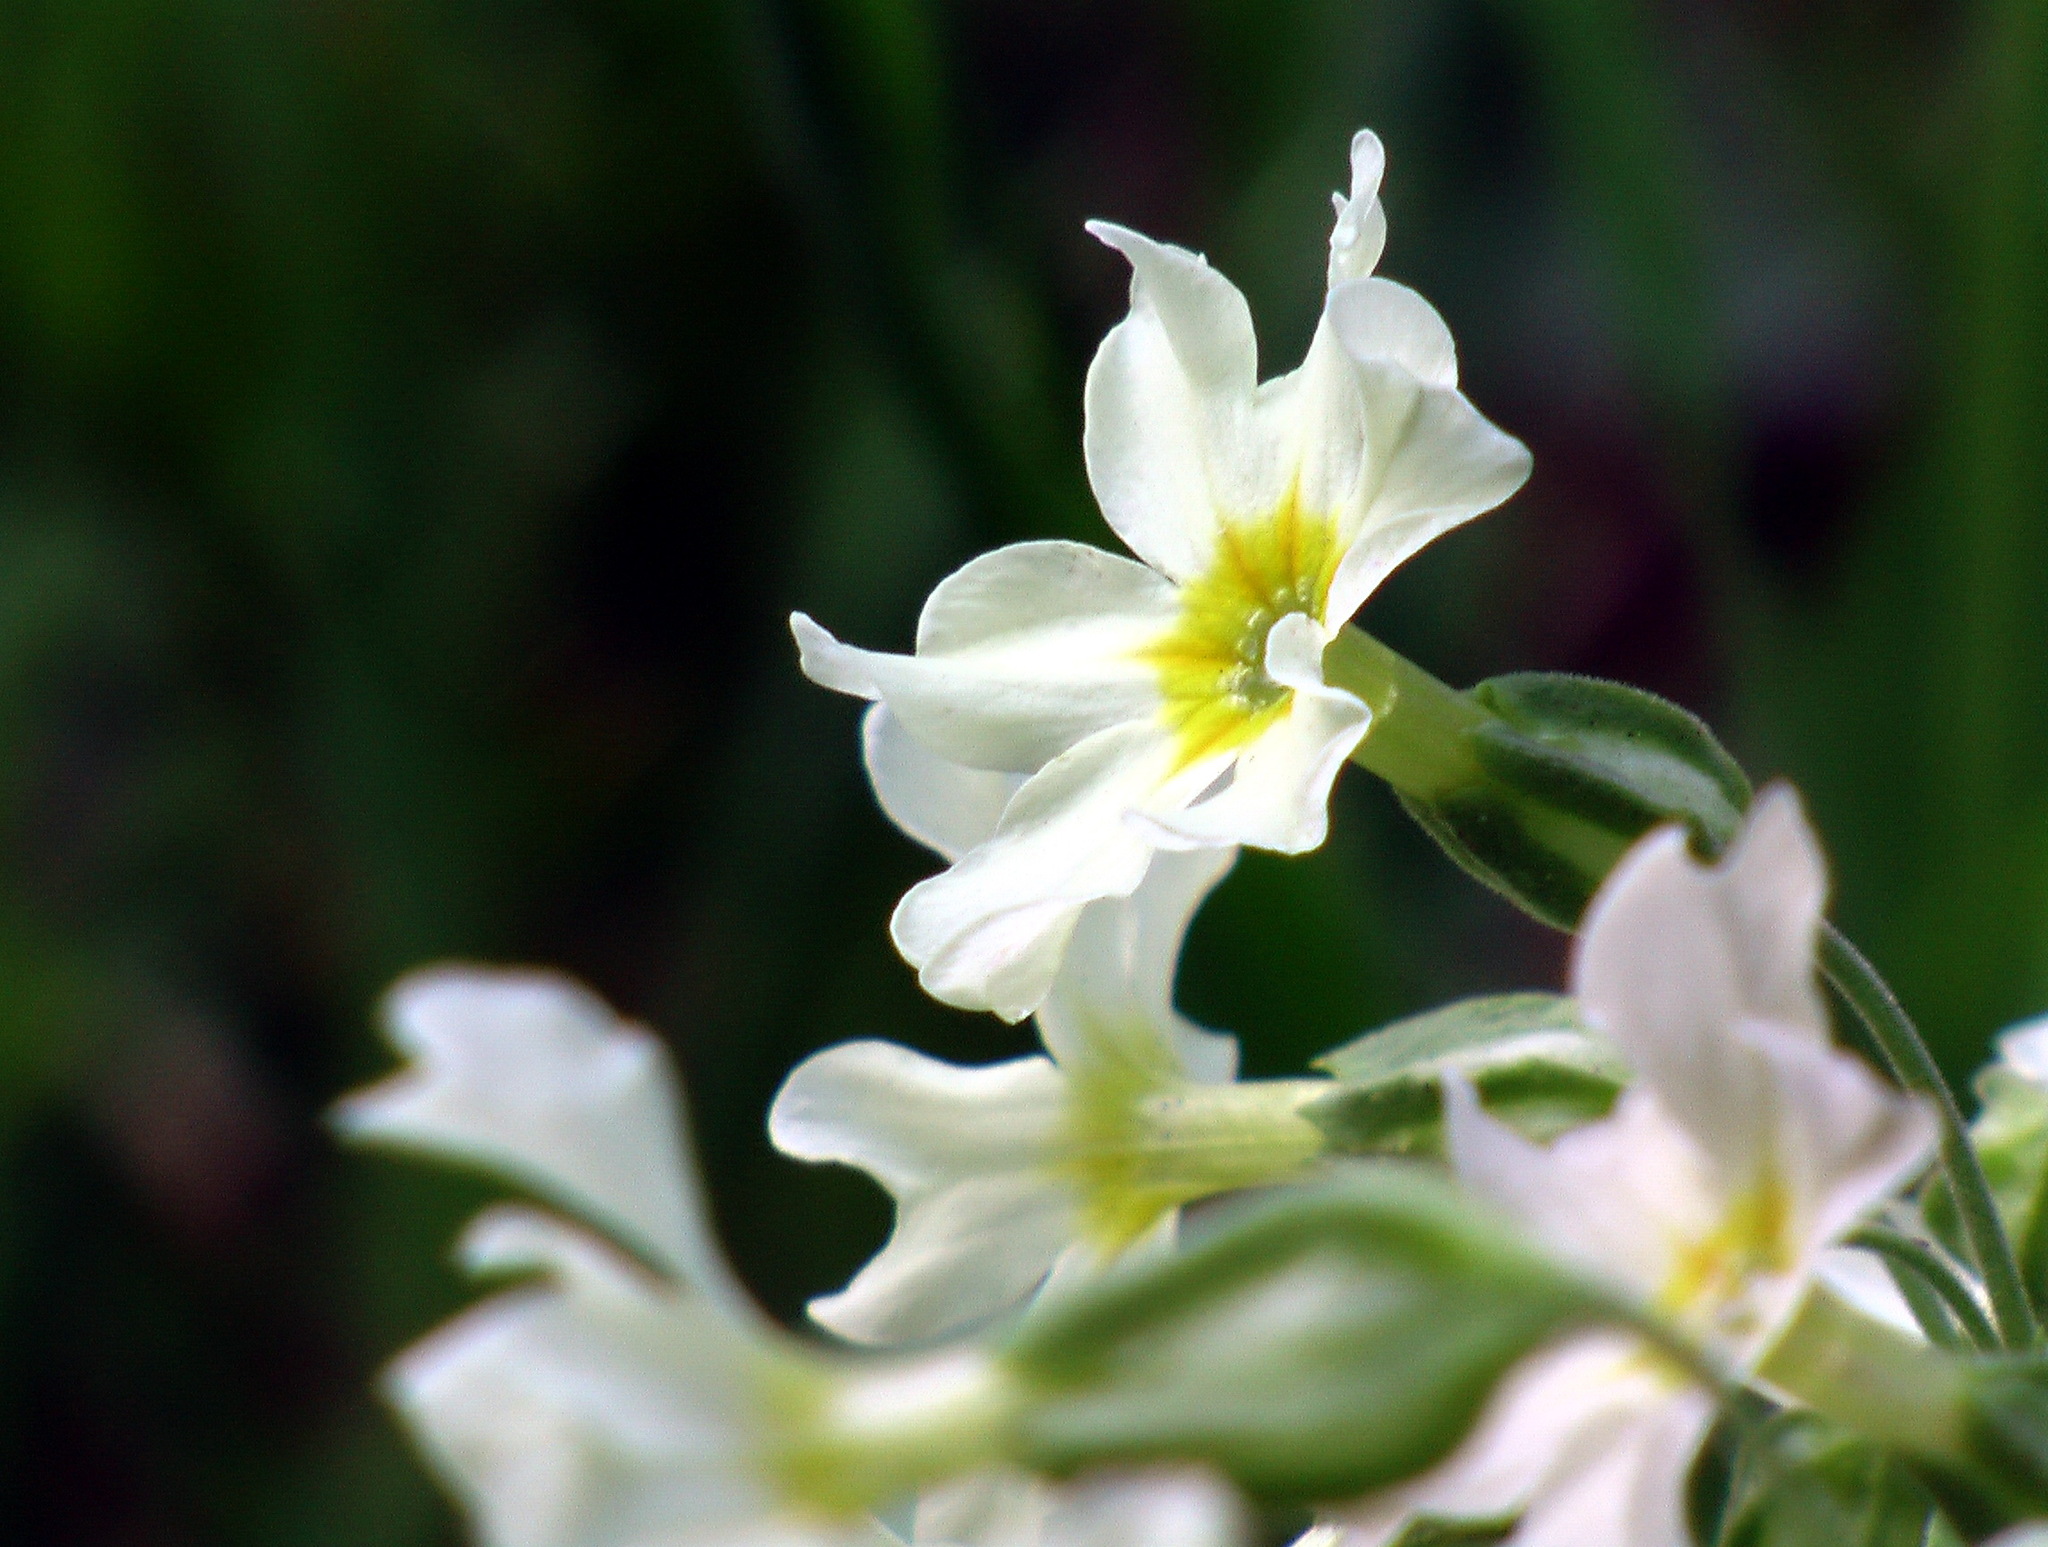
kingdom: Plantae
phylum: Tracheophyta
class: Magnoliopsida
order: Ericales
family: Primulaceae
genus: Primula
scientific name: Primula elatior
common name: Oxlip
